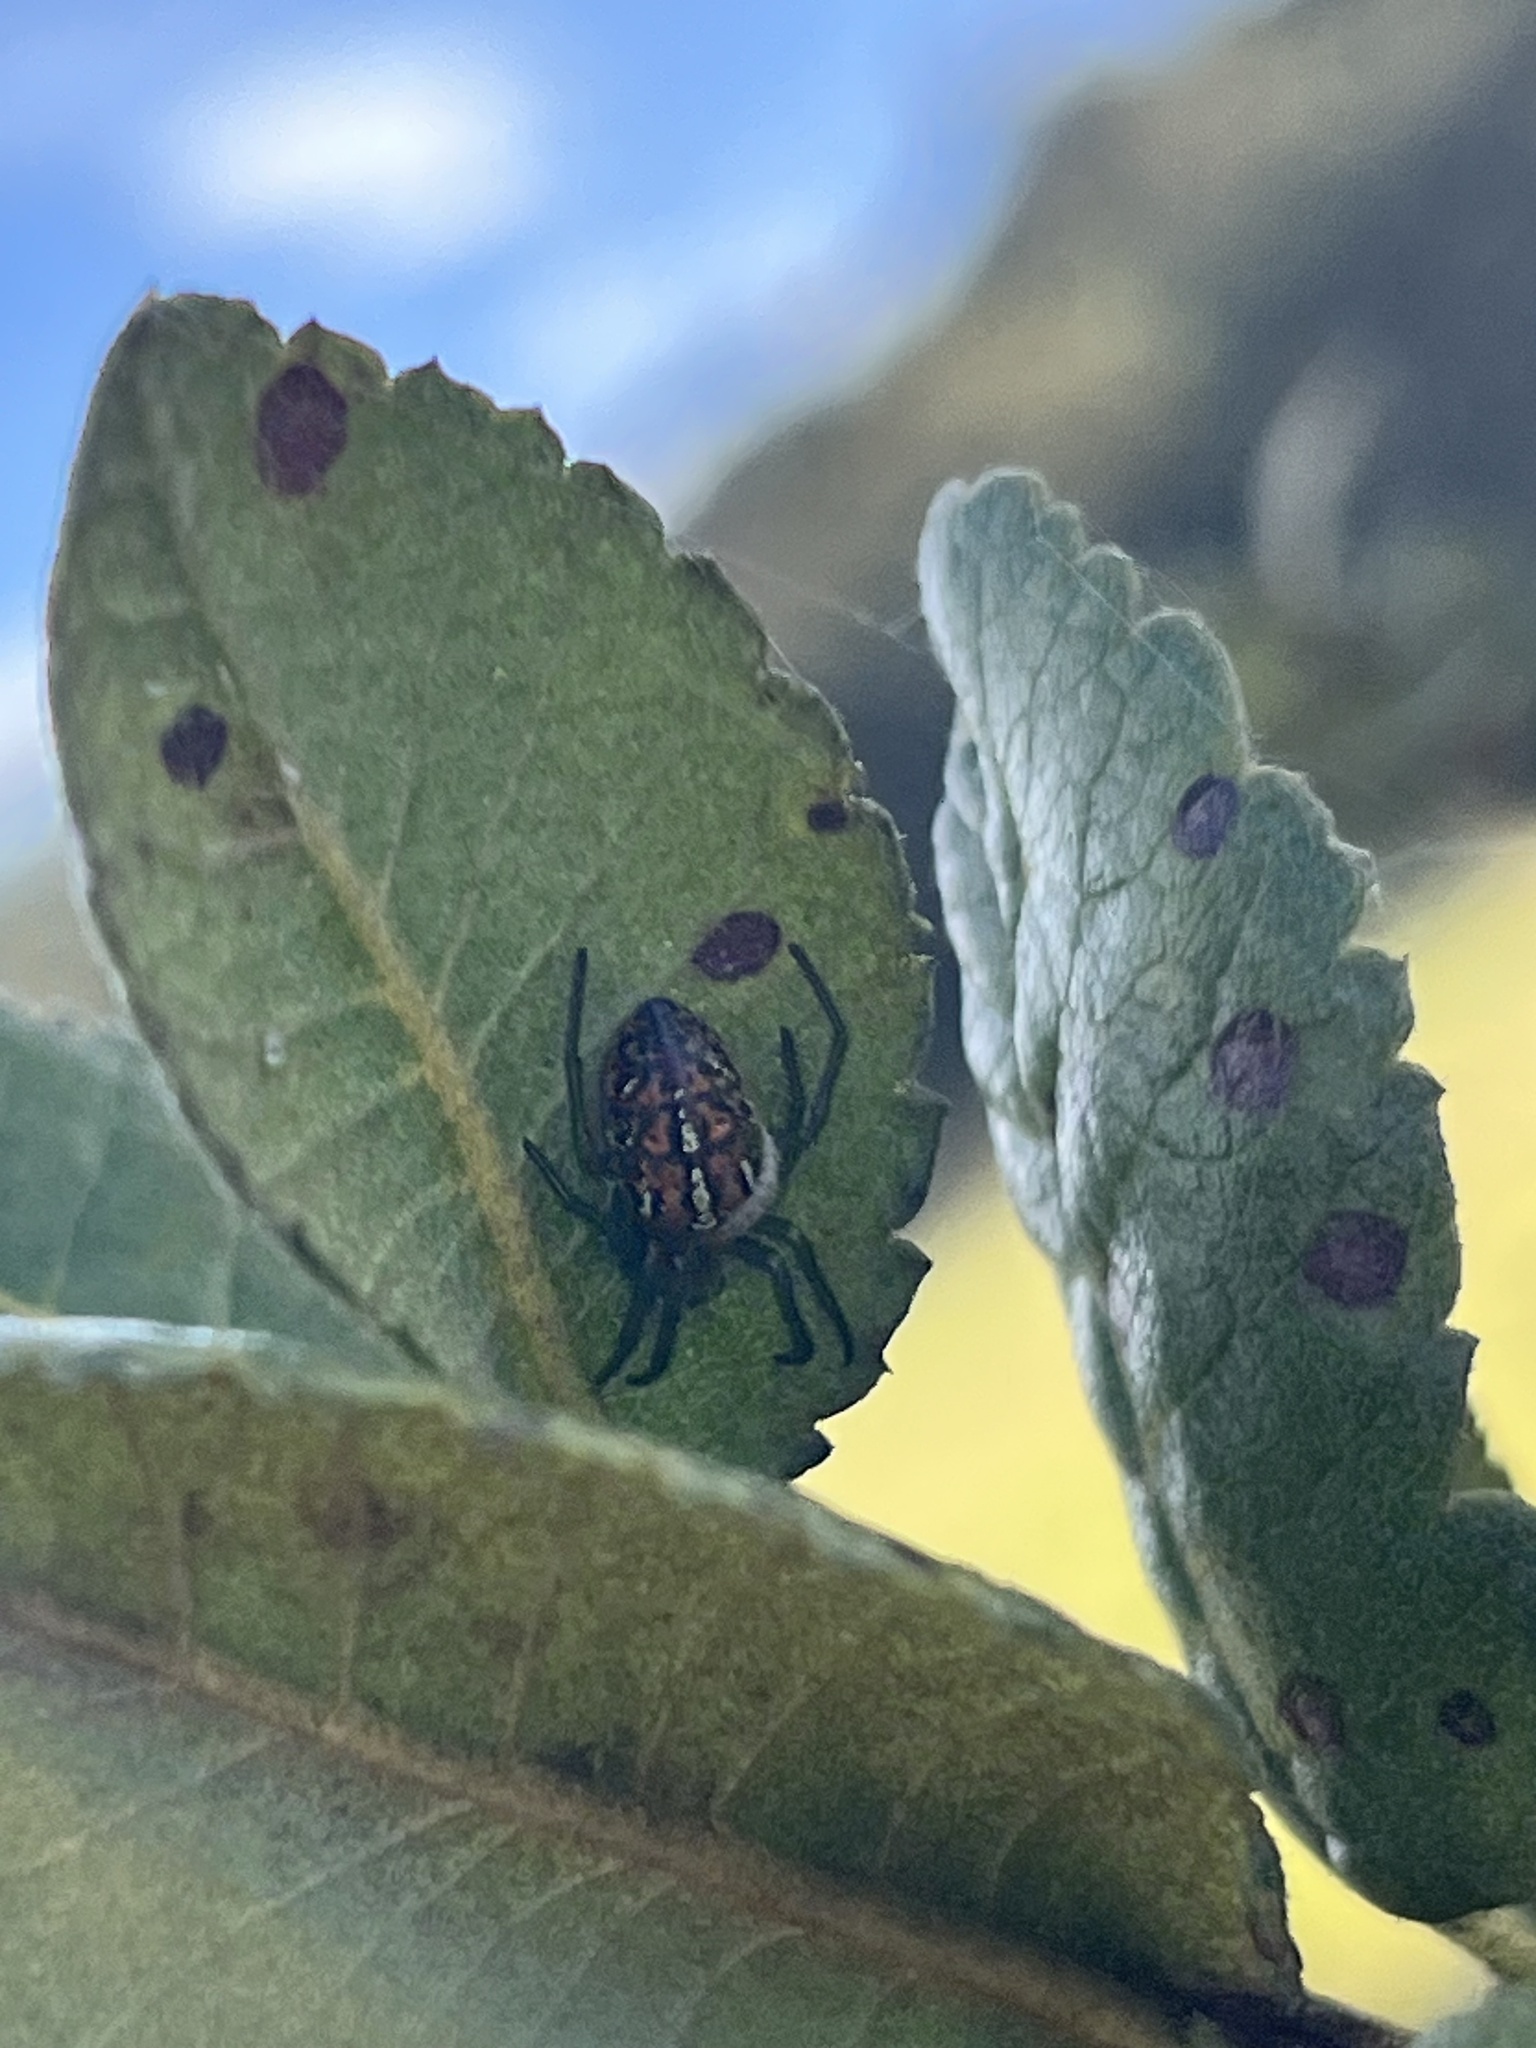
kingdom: Animalia
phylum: Arthropoda
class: Arachnida
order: Araneae
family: Araneidae
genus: Alpaida
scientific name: Alpaida variabilis
